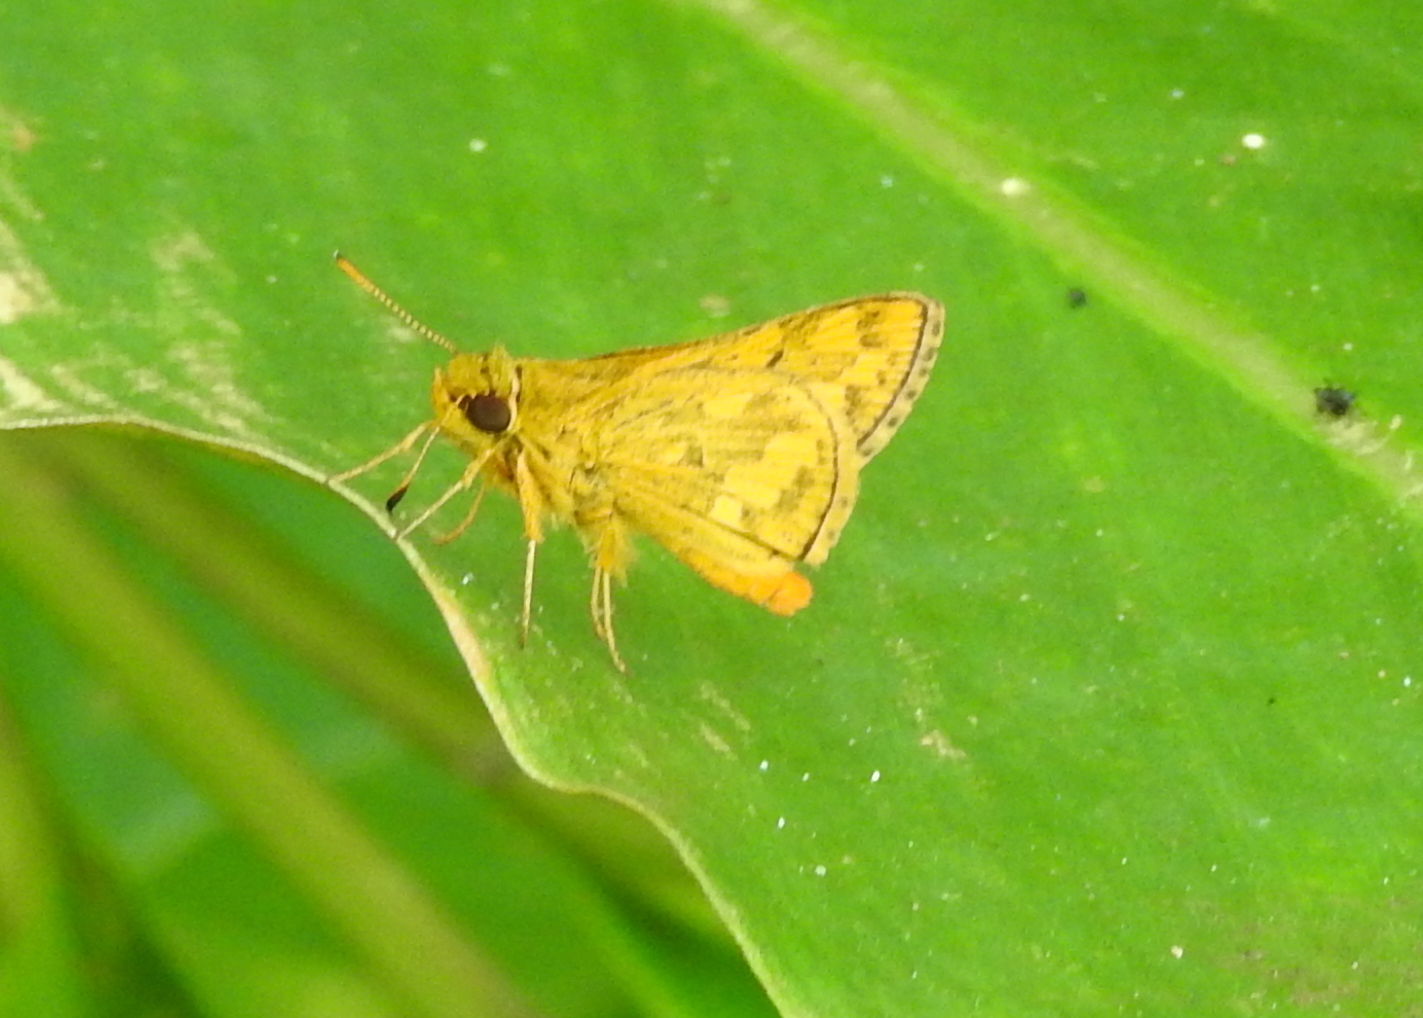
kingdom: Animalia
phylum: Arthropoda
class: Insecta
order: Lepidoptera
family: Hesperiidae
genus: Potanthus
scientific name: Potanthus confucius
